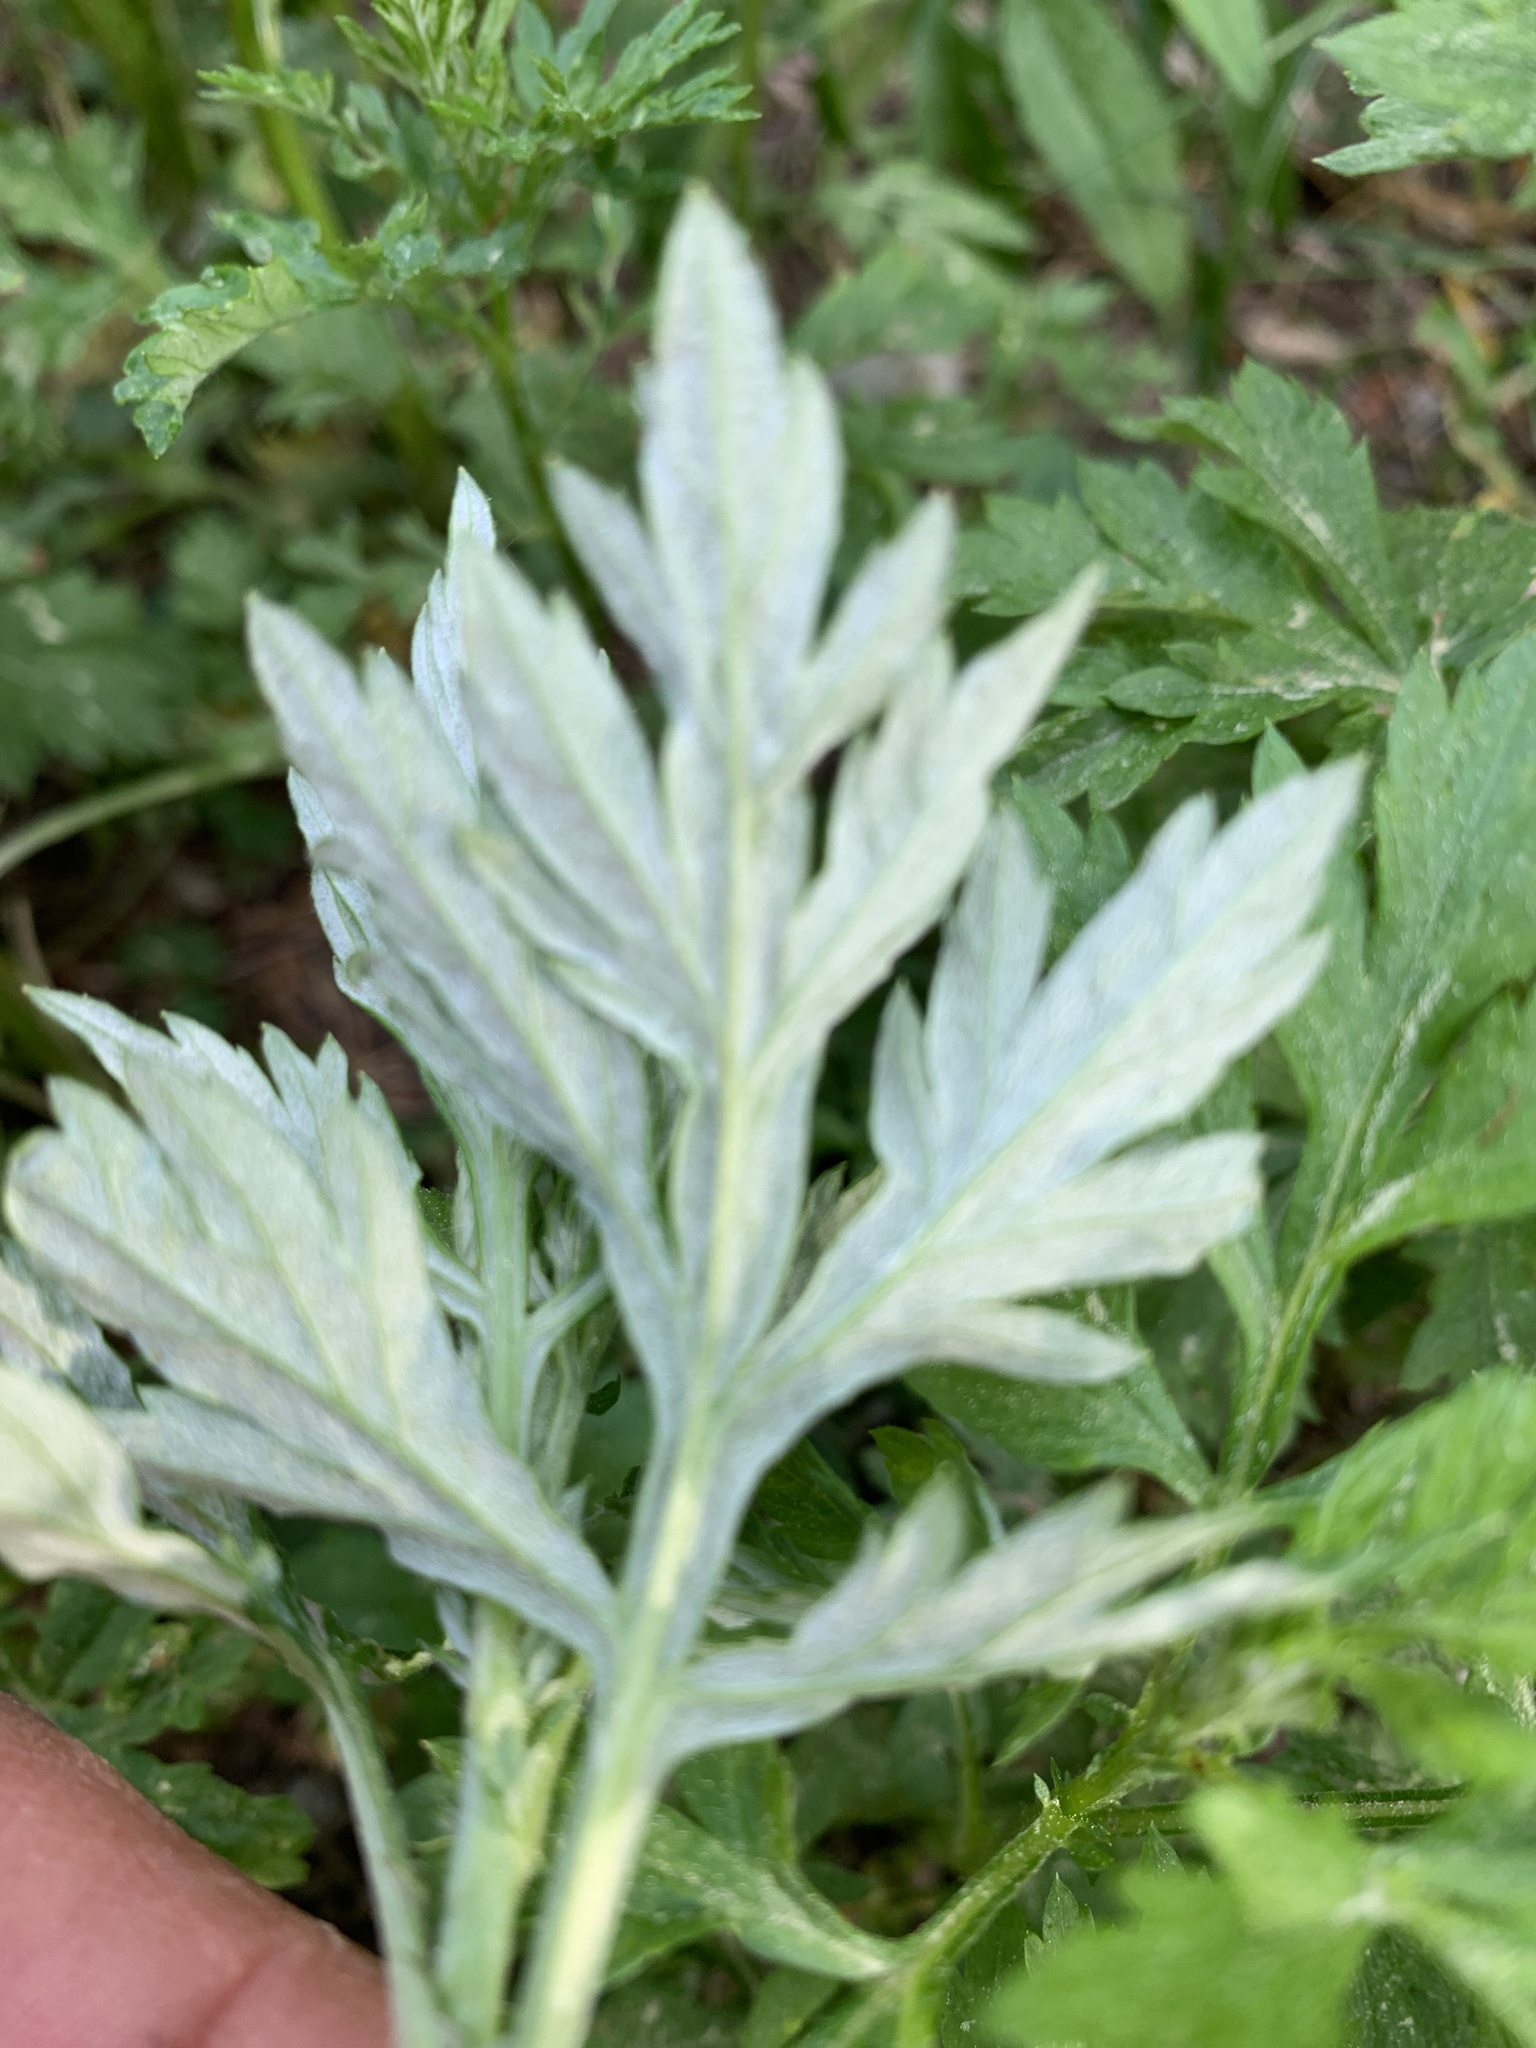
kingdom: Plantae
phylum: Tracheophyta
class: Magnoliopsida
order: Asterales
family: Asteraceae
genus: Artemisia
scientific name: Artemisia vulgaris
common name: Mugwort
